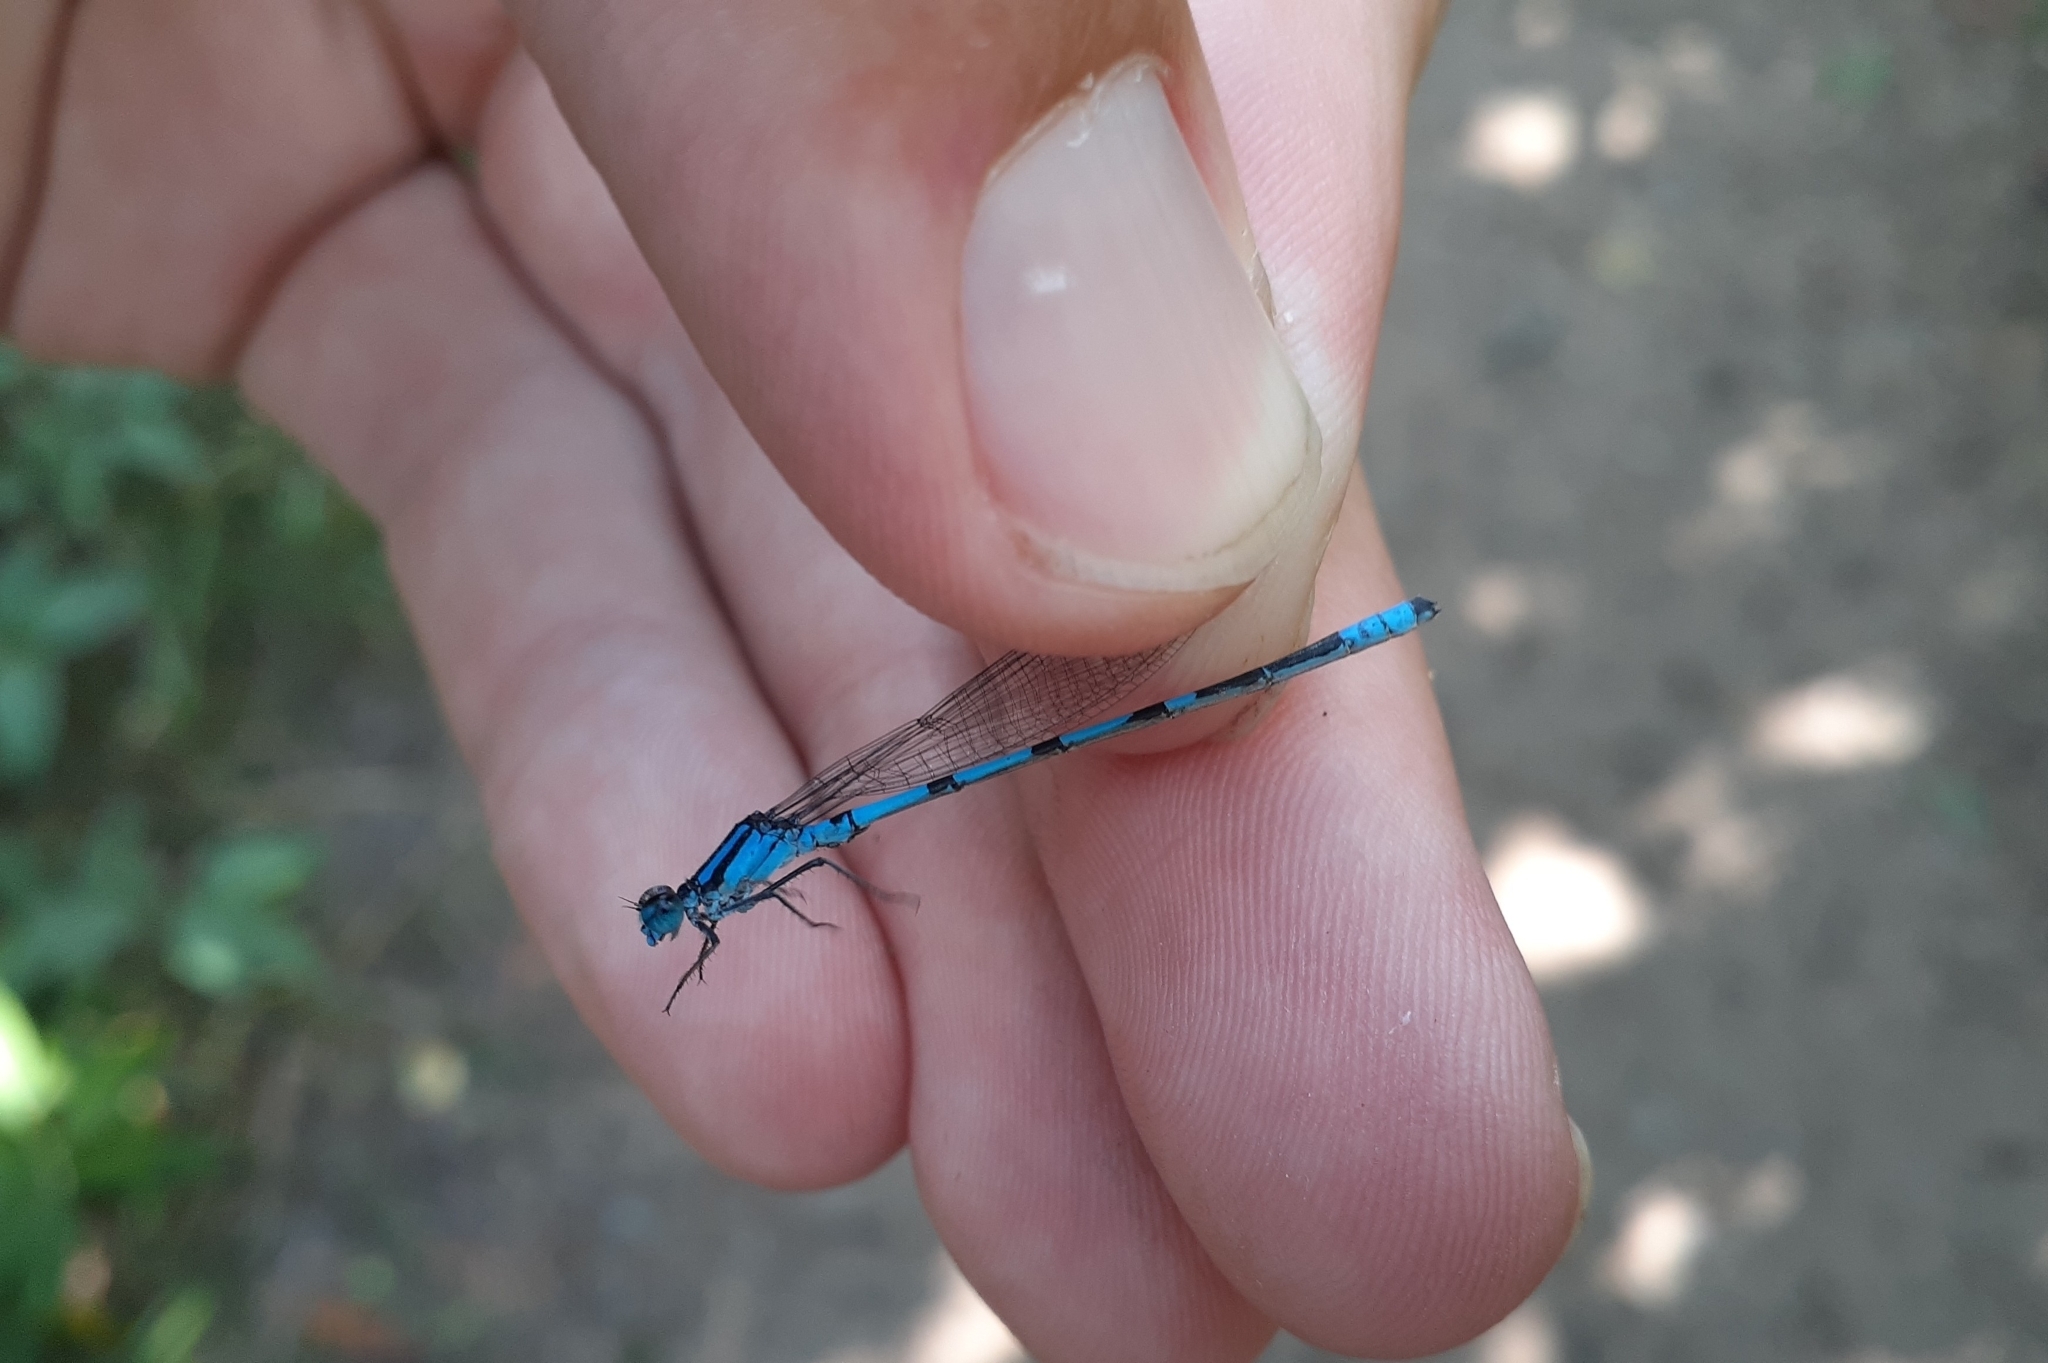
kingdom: Animalia
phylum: Arthropoda
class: Insecta
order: Odonata
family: Coenagrionidae
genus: Enallagma
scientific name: Enallagma hageni
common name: Hagen's bluet
